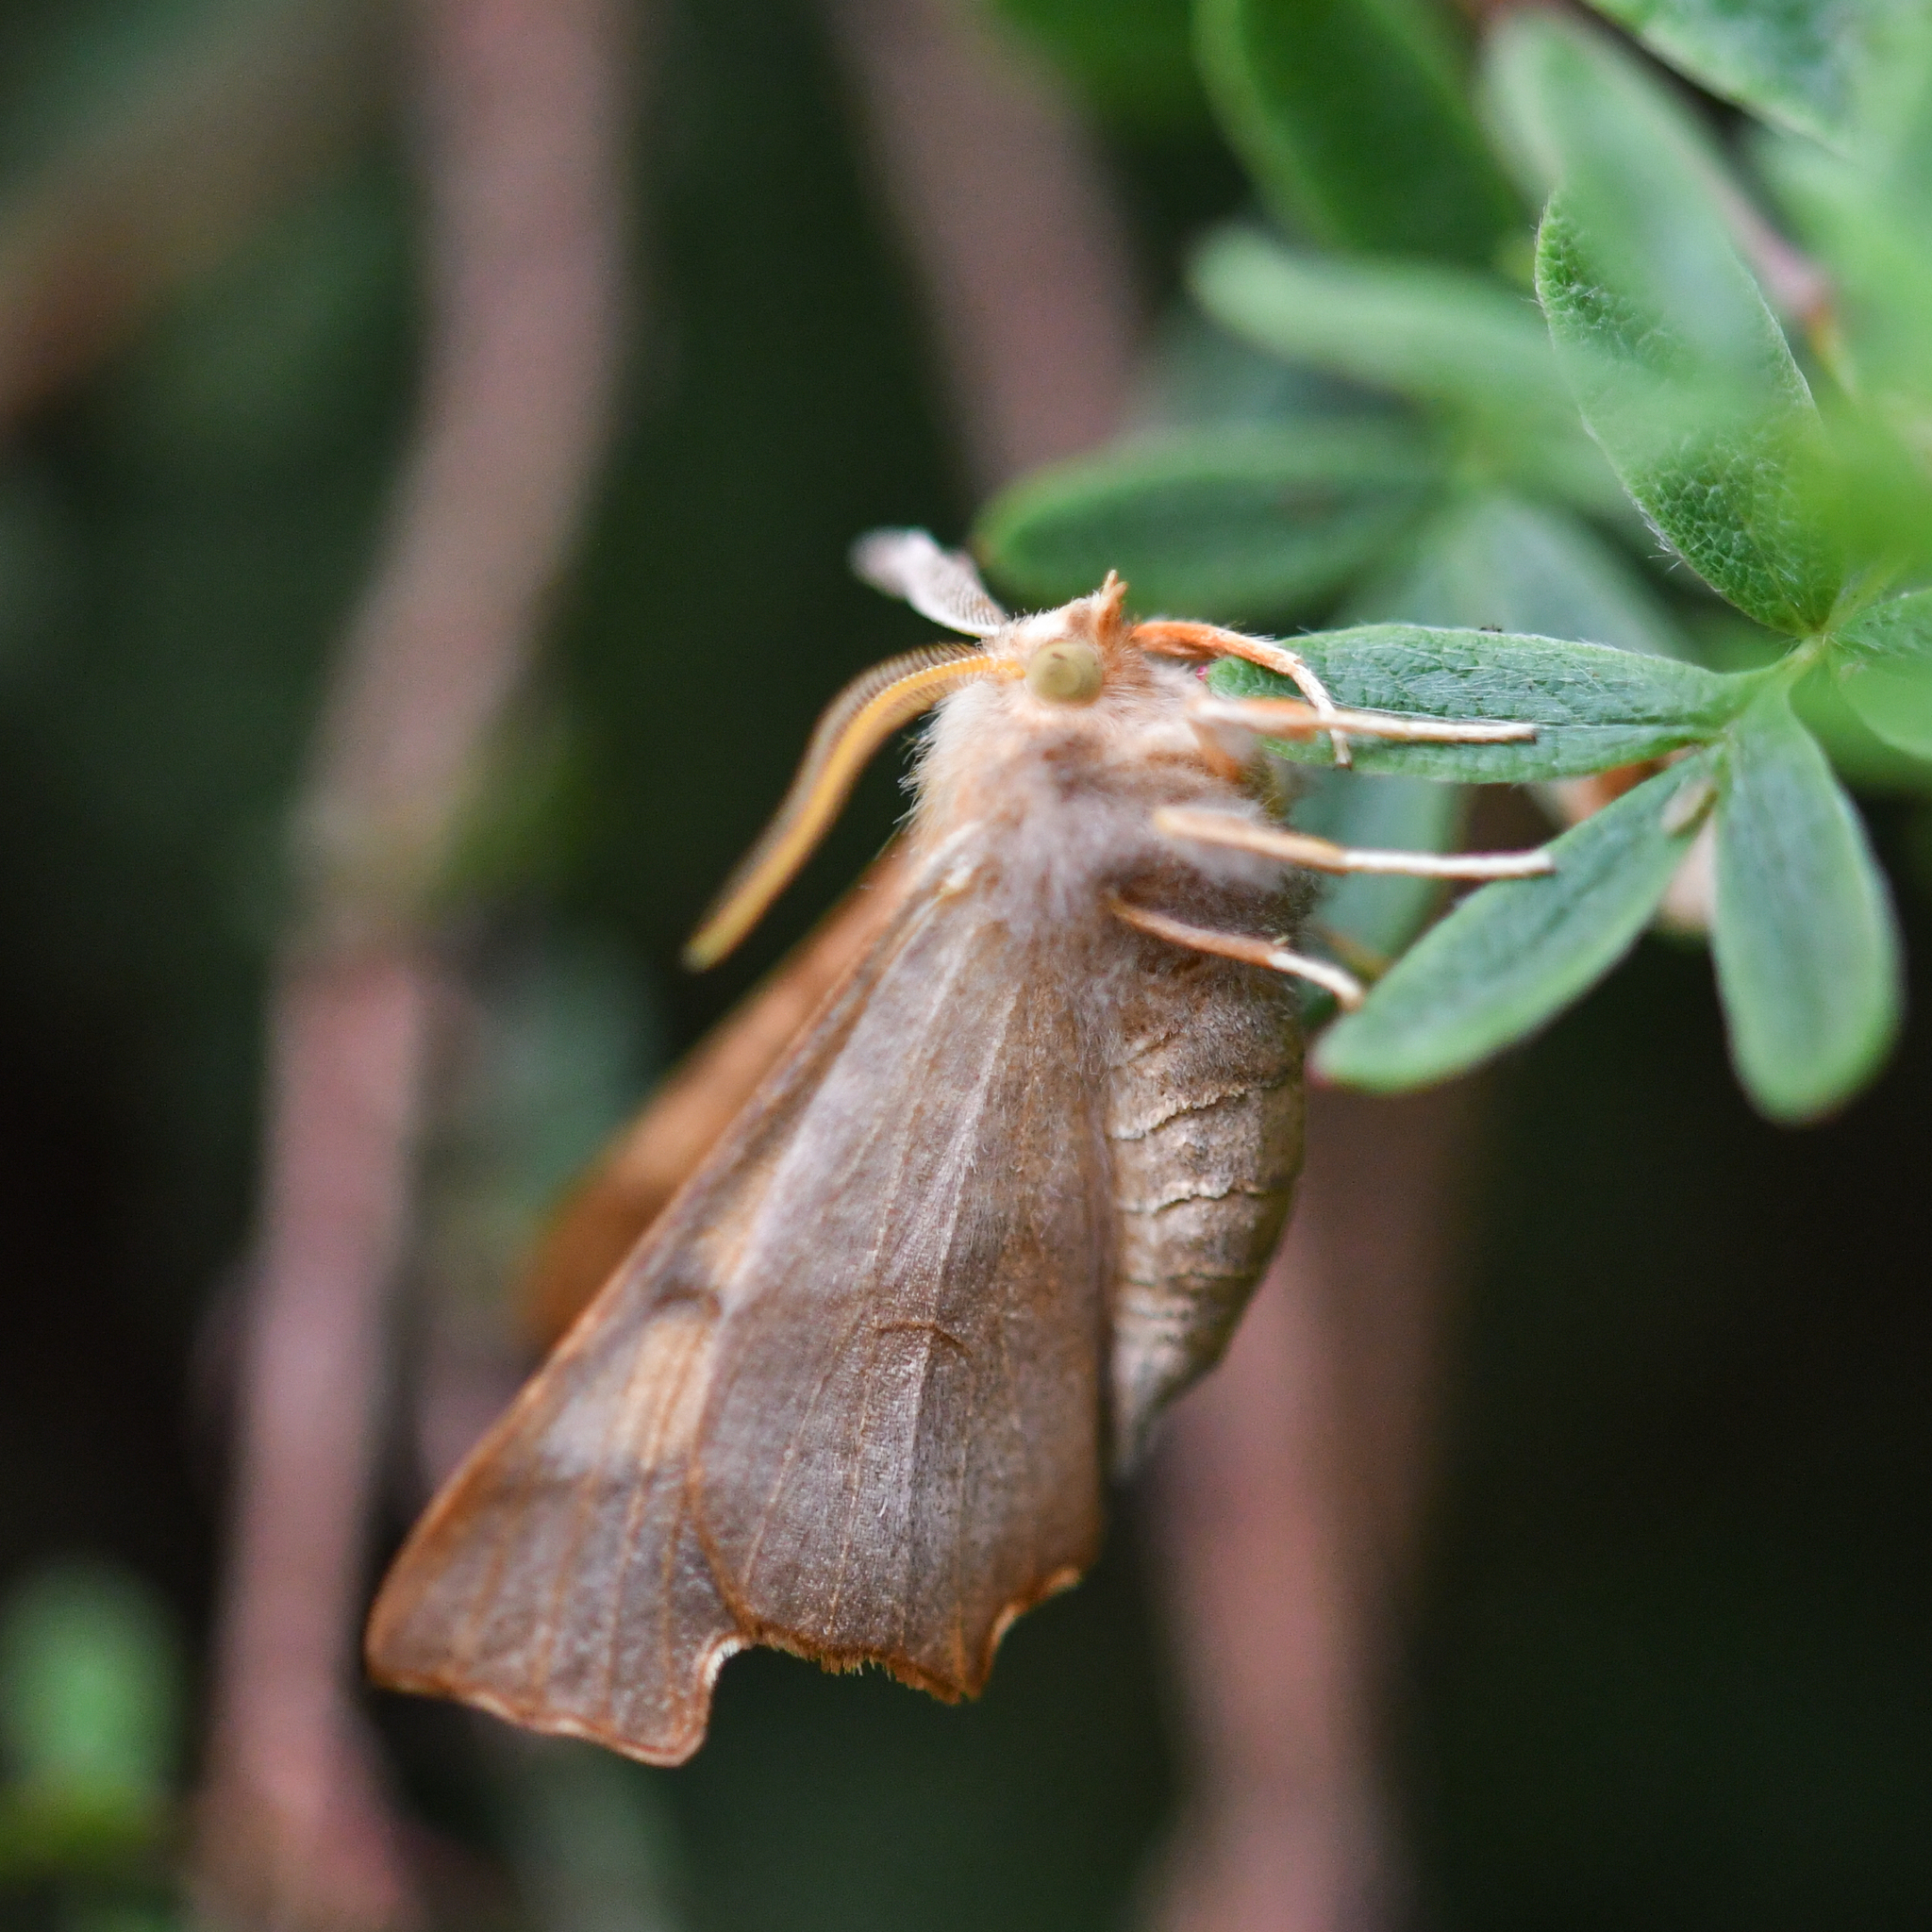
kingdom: Animalia
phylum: Arthropoda
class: Insecta
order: Lepidoptera
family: Geometridae
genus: Ennomos
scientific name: Ennomos fuscantaria
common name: Dusky thorn
